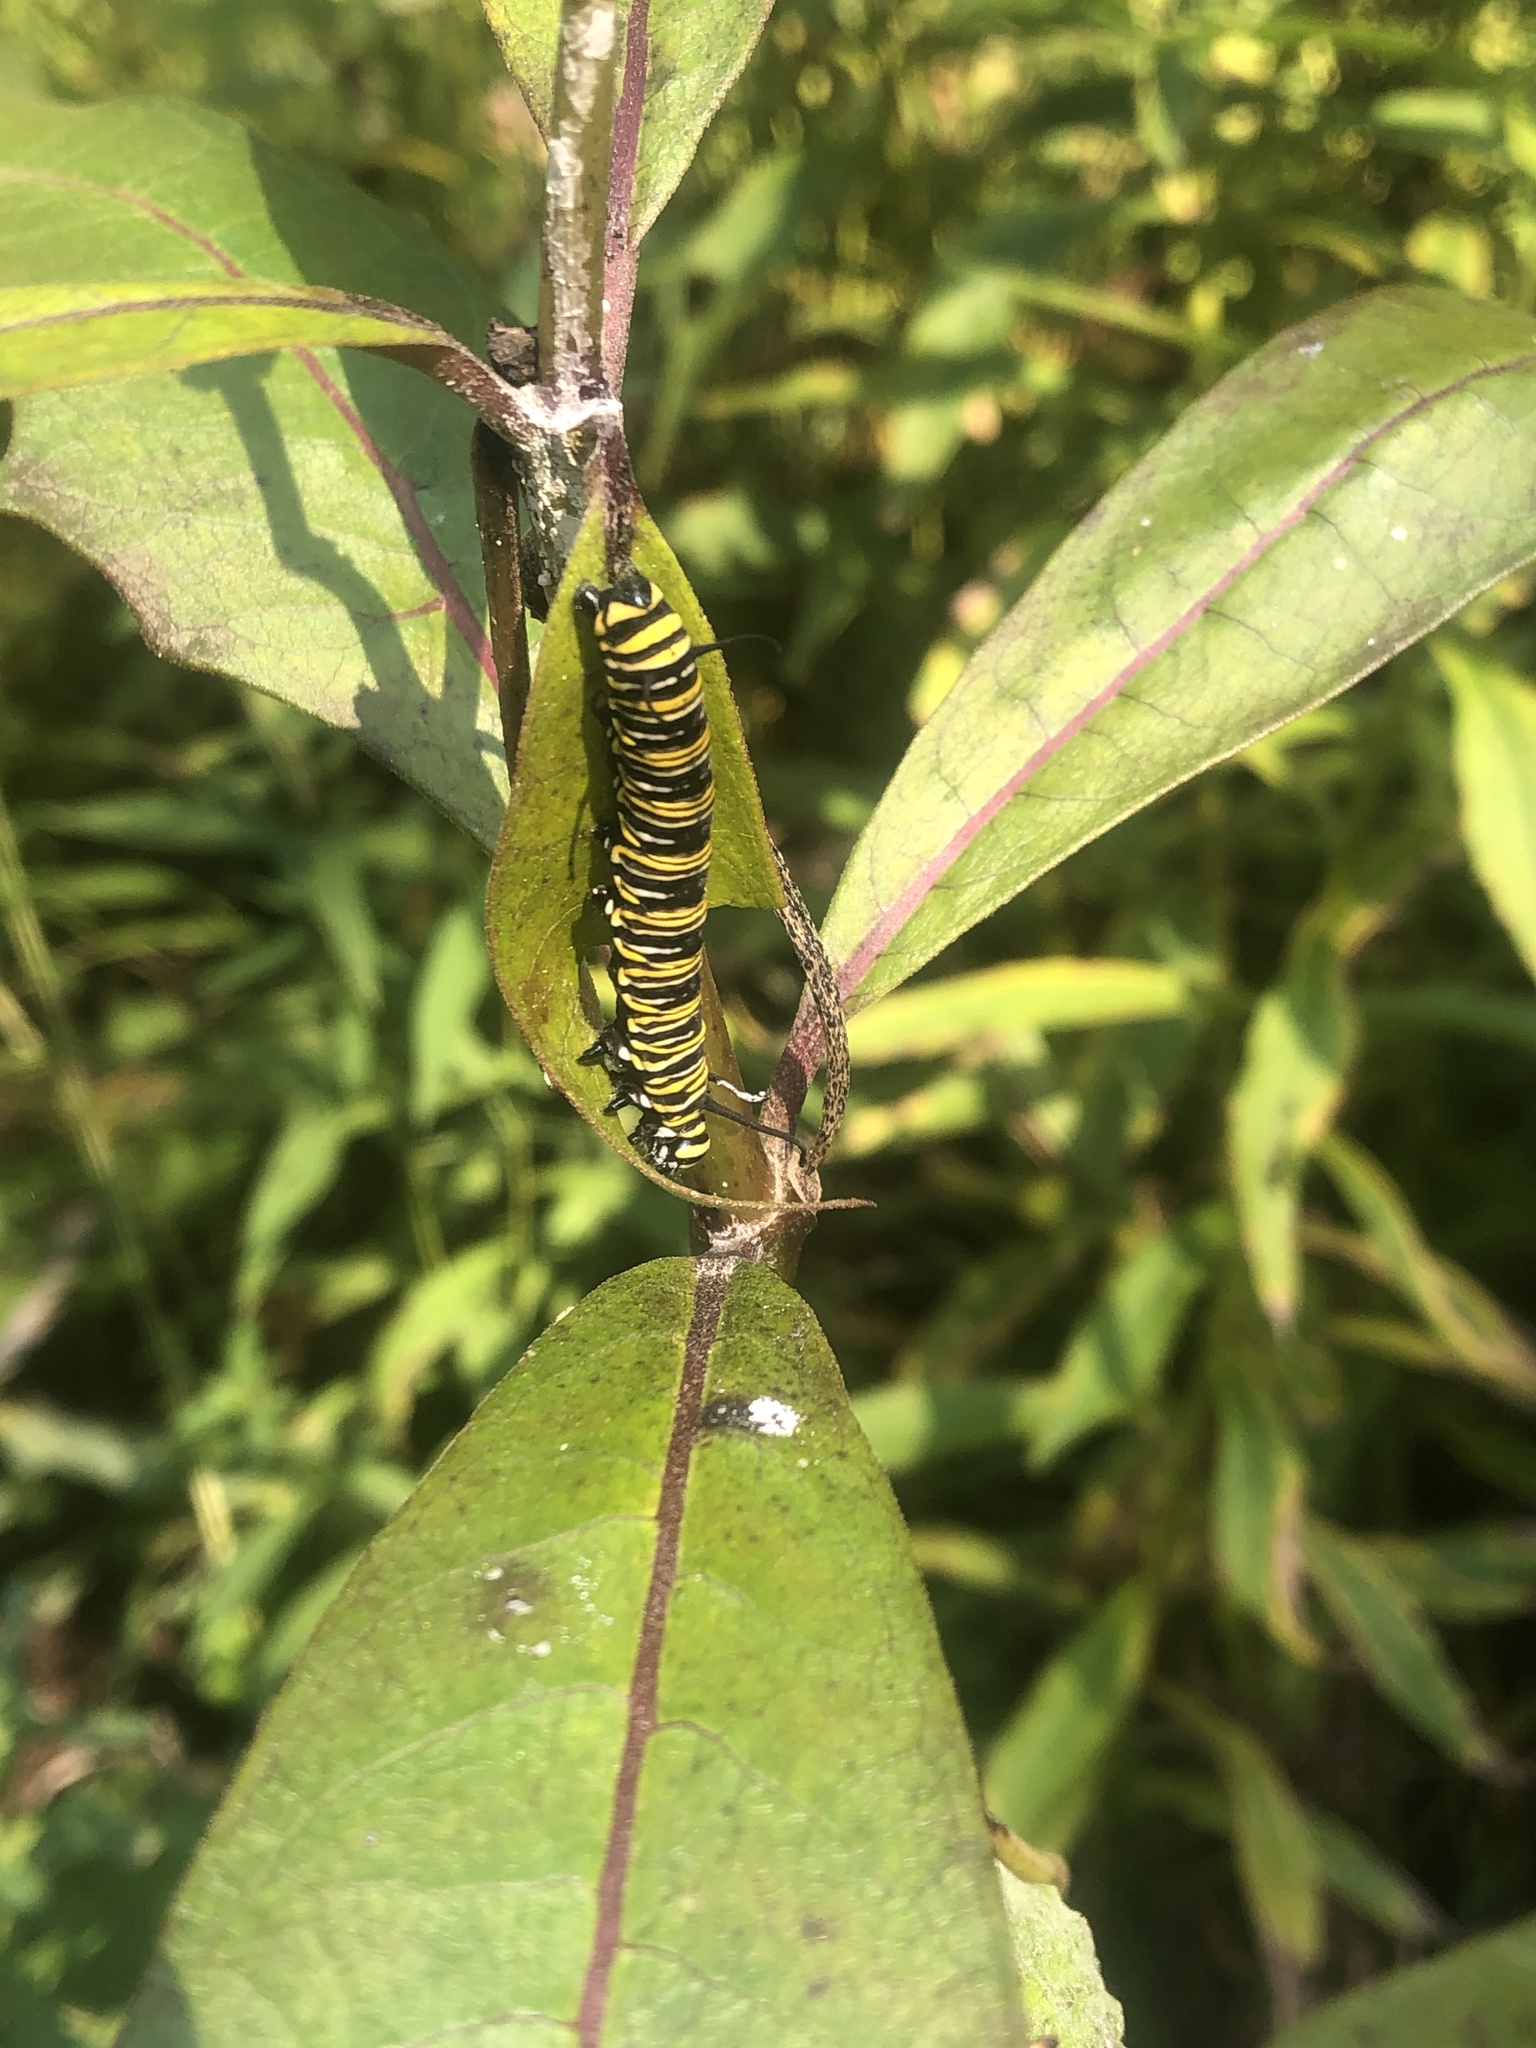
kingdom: Animalia
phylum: Arthropoda
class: Insecta
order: Lepidoptera
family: Nymphalidae
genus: Danaus
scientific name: Danaus plexippus
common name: Monarch
